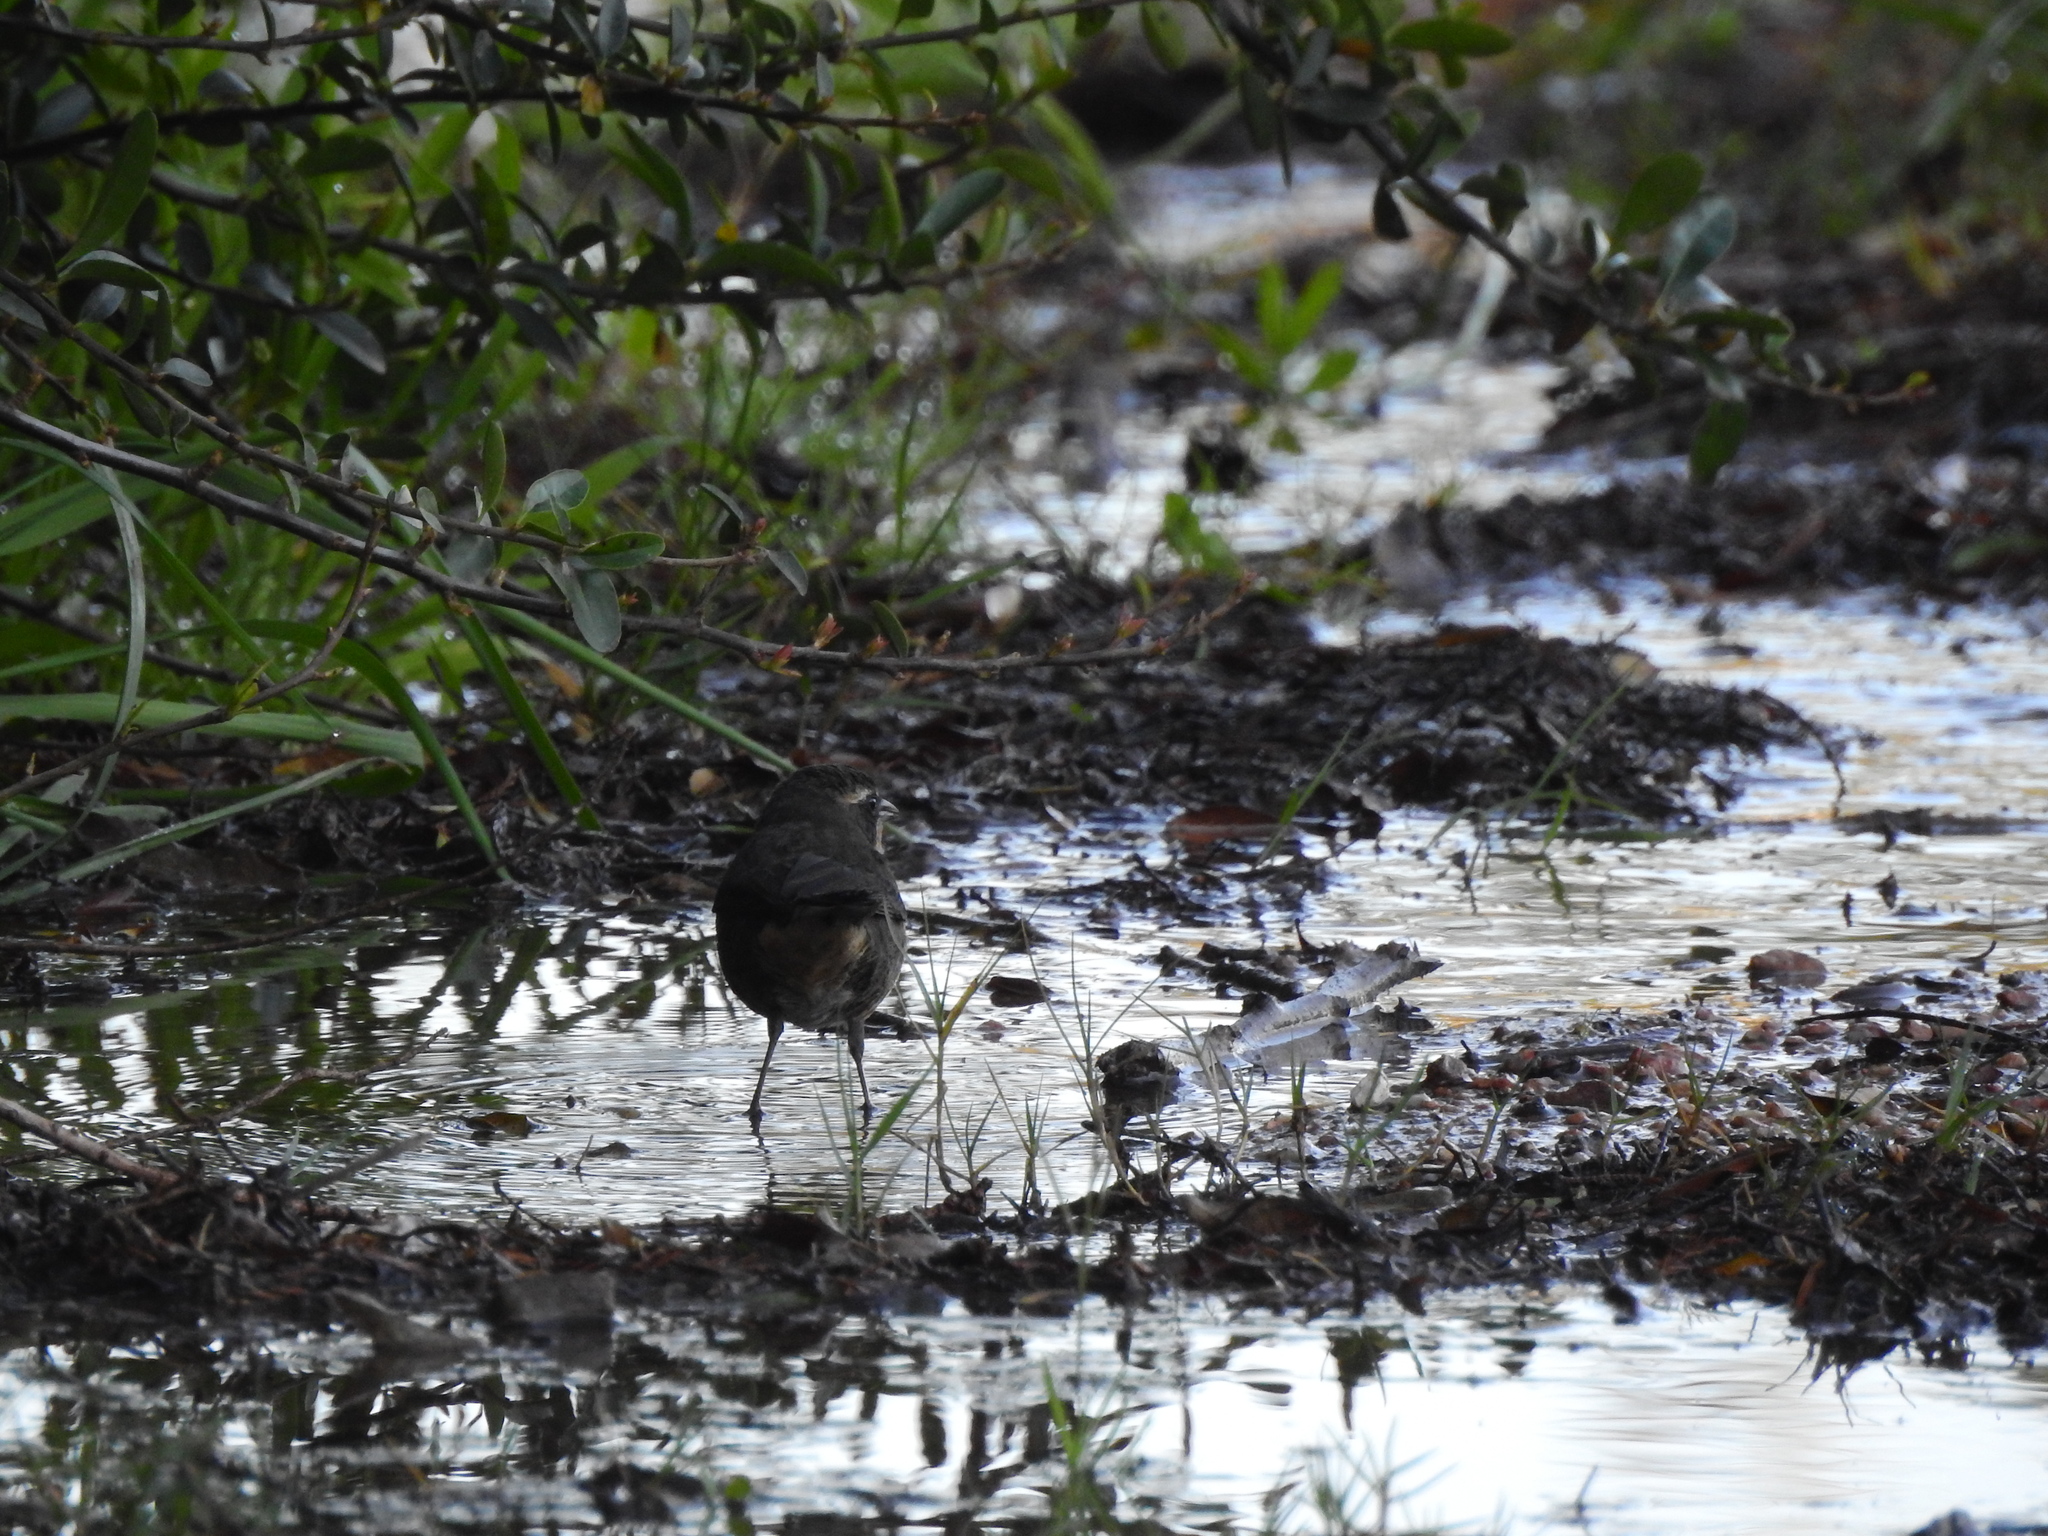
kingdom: Animalia
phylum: Chordata
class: Aves
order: Passeriformes
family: Thraupidae
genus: Poospiza
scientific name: Poospiza nigrorufa
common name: Black-and-rufous warbling finch
